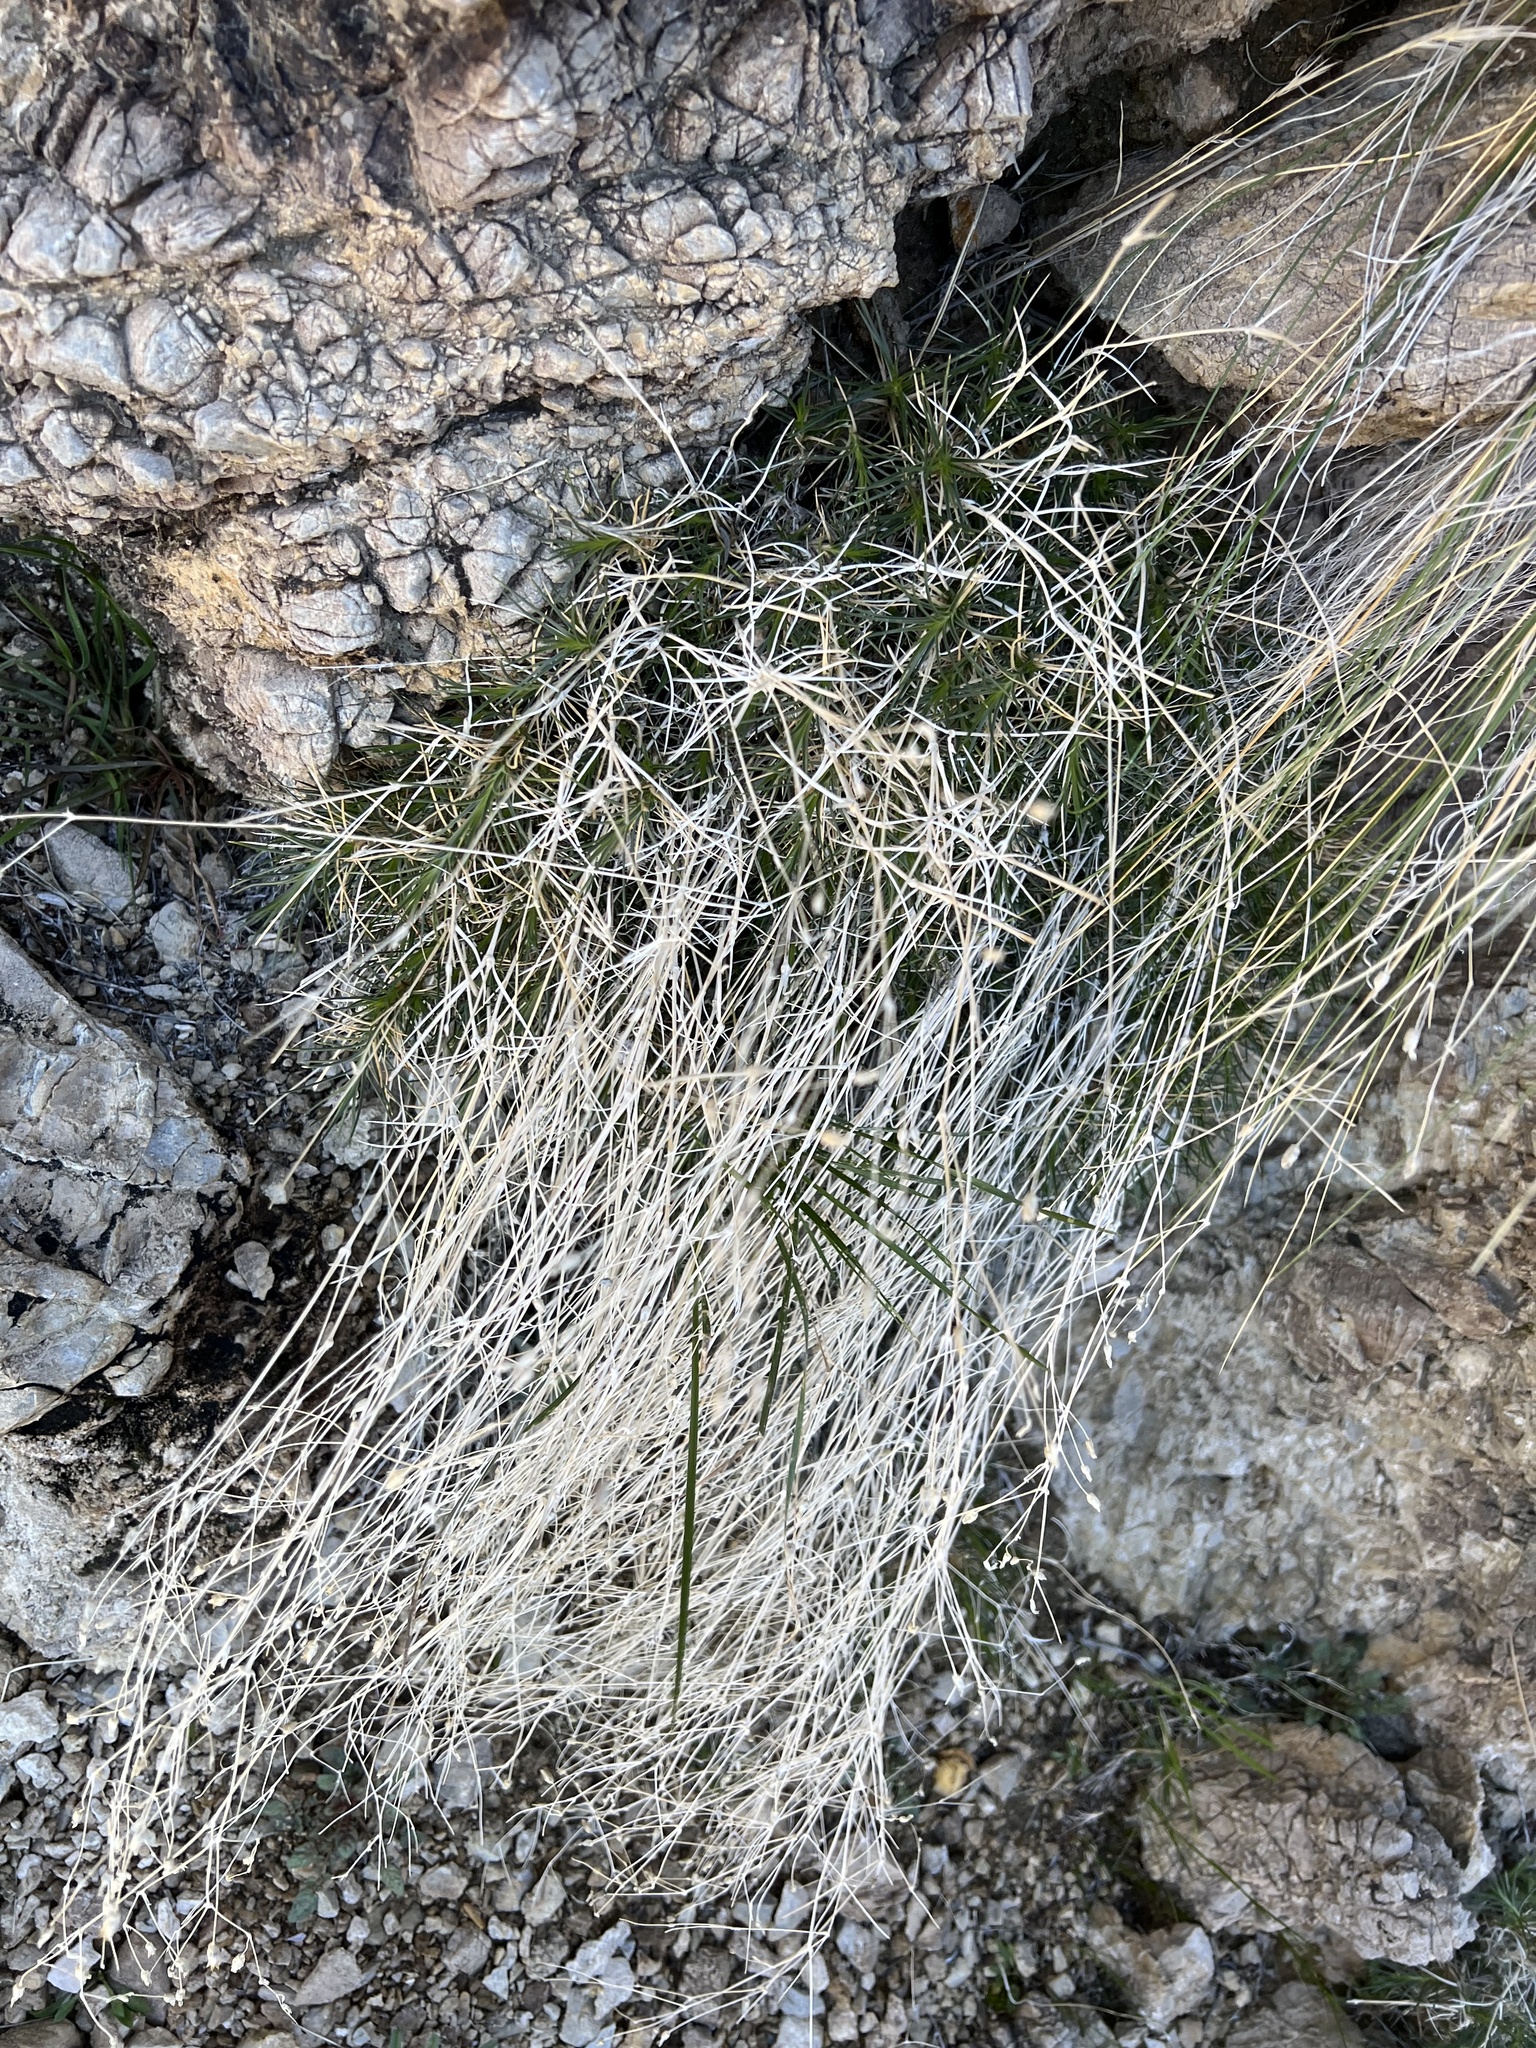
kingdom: Plantae
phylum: Tracheophyta
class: Magnoliopsida
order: Caryophyllales
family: Caryophyllaceae
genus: Eremogone
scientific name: Eremogone macradenia
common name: Mohave sandwort
